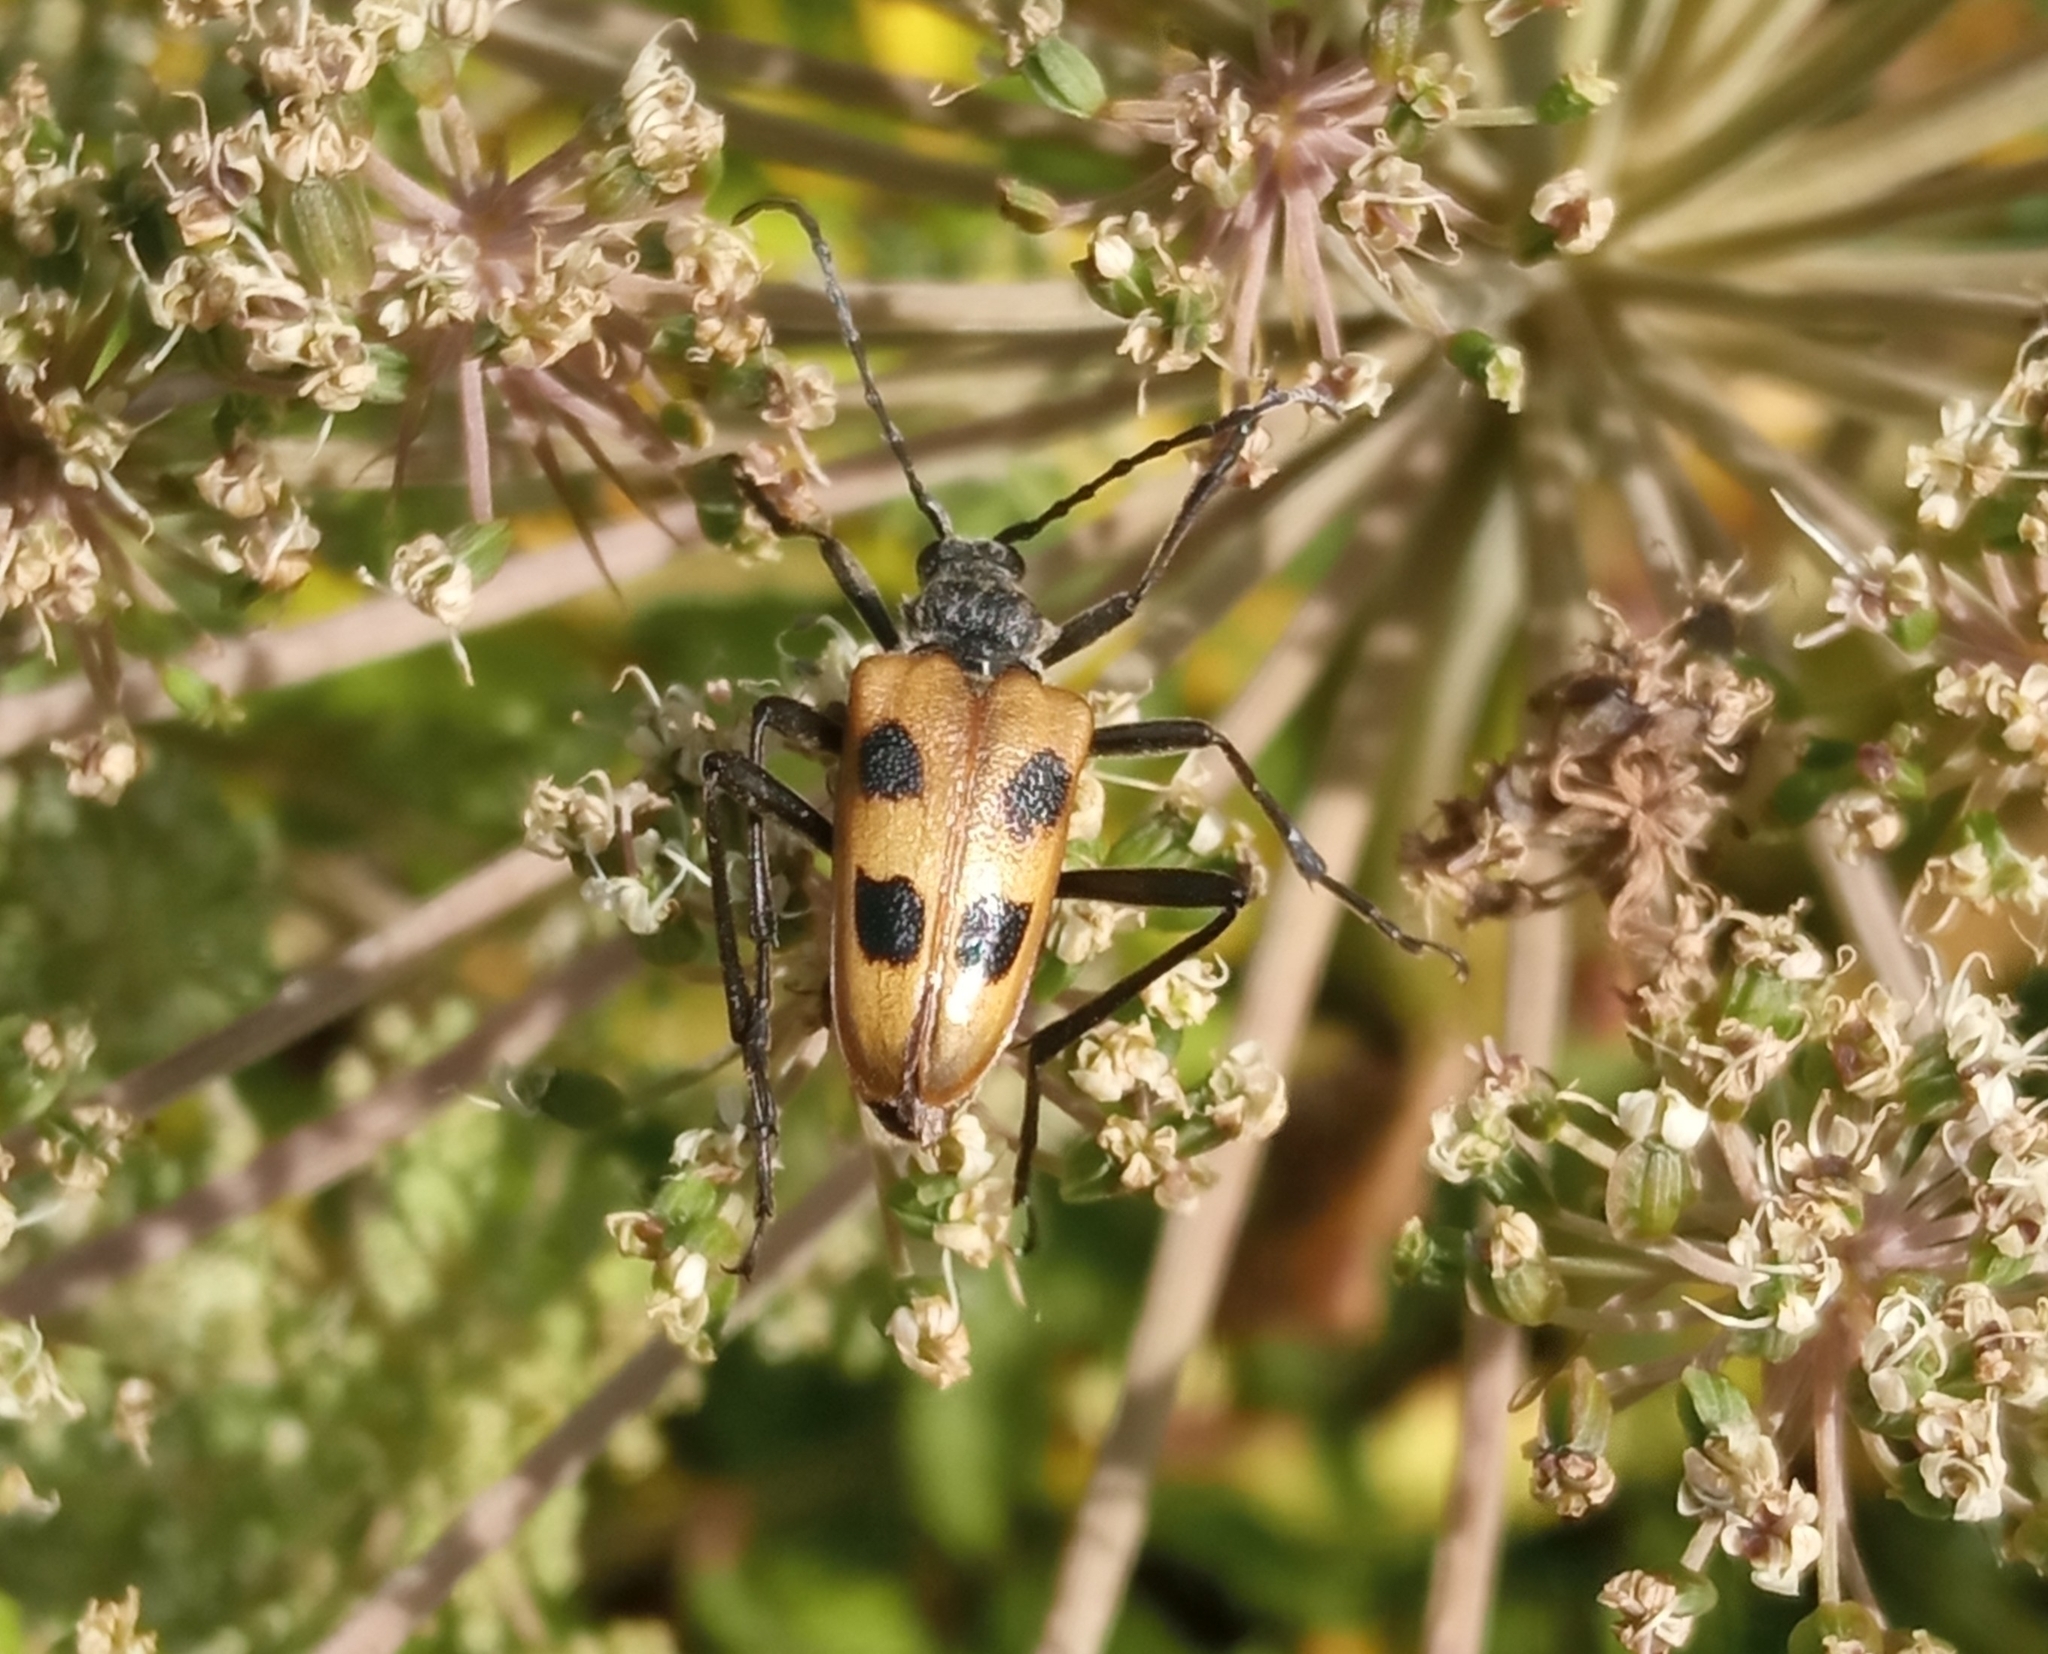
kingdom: Animalia
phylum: Arthropoda
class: Insecta
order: Coleoptera
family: Cerambycidae
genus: Pachyta
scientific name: Pachyta quadrimaculata
